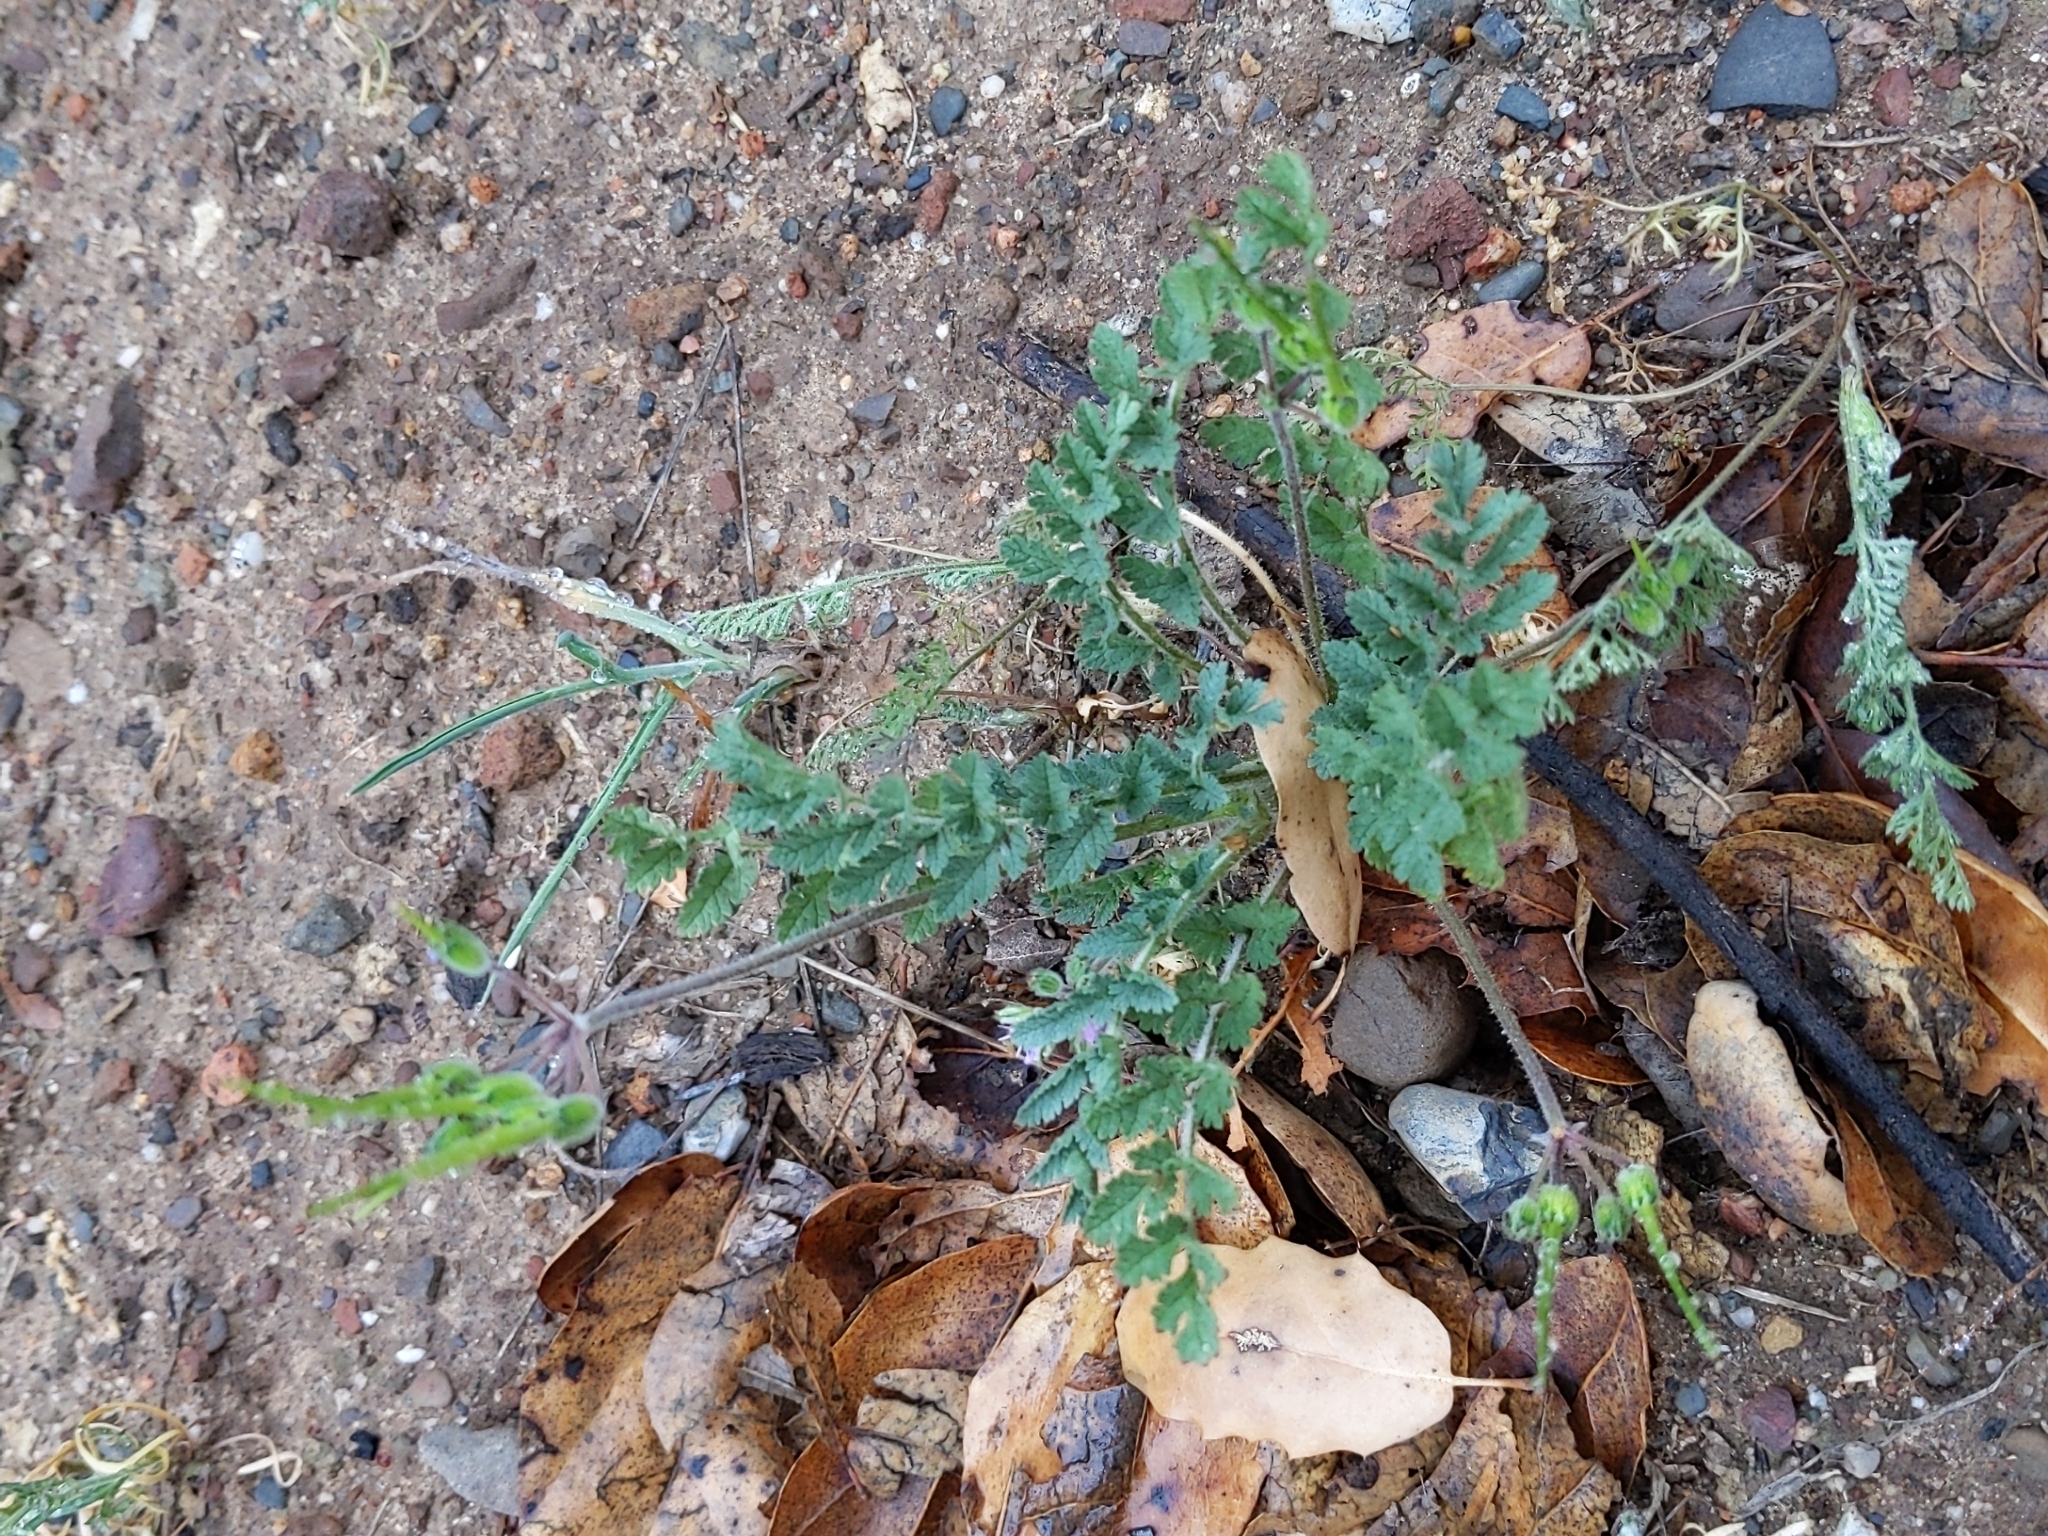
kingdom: Plantae
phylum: Tracheophyta
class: Magnoliopsida
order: Geraniales
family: Geraniaceae
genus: Erodium
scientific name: Erodium cicutarium
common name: Common stork's-bill
